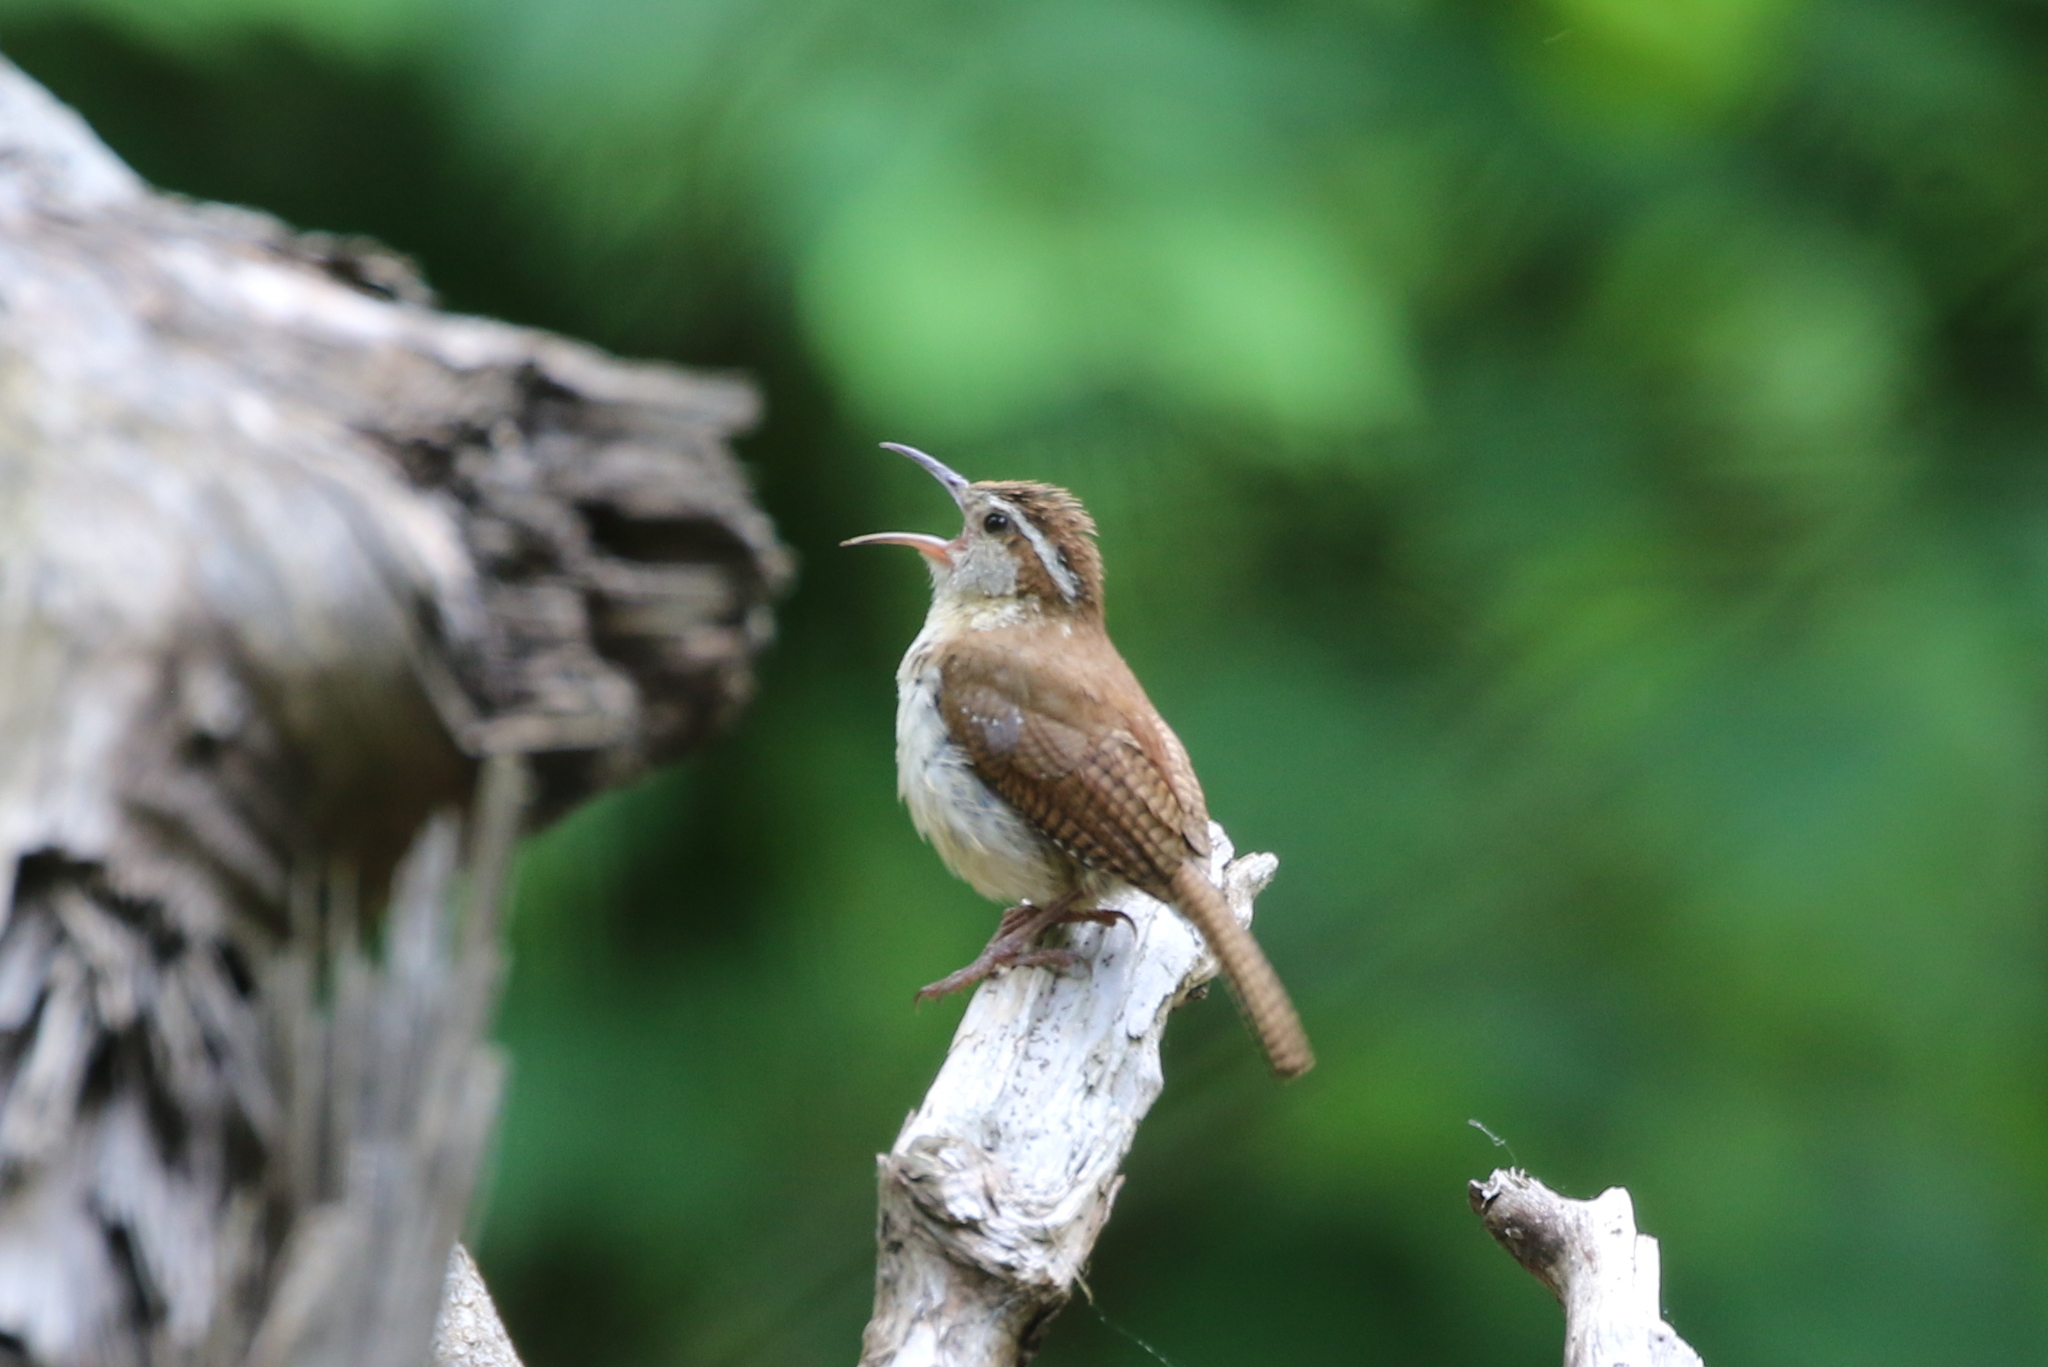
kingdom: Animalia
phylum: Chordata
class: Aves
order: Passeriformes
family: Troglodytidae
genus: Thryothorus
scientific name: Thryothorus ludovicianus
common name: Carolina wren
